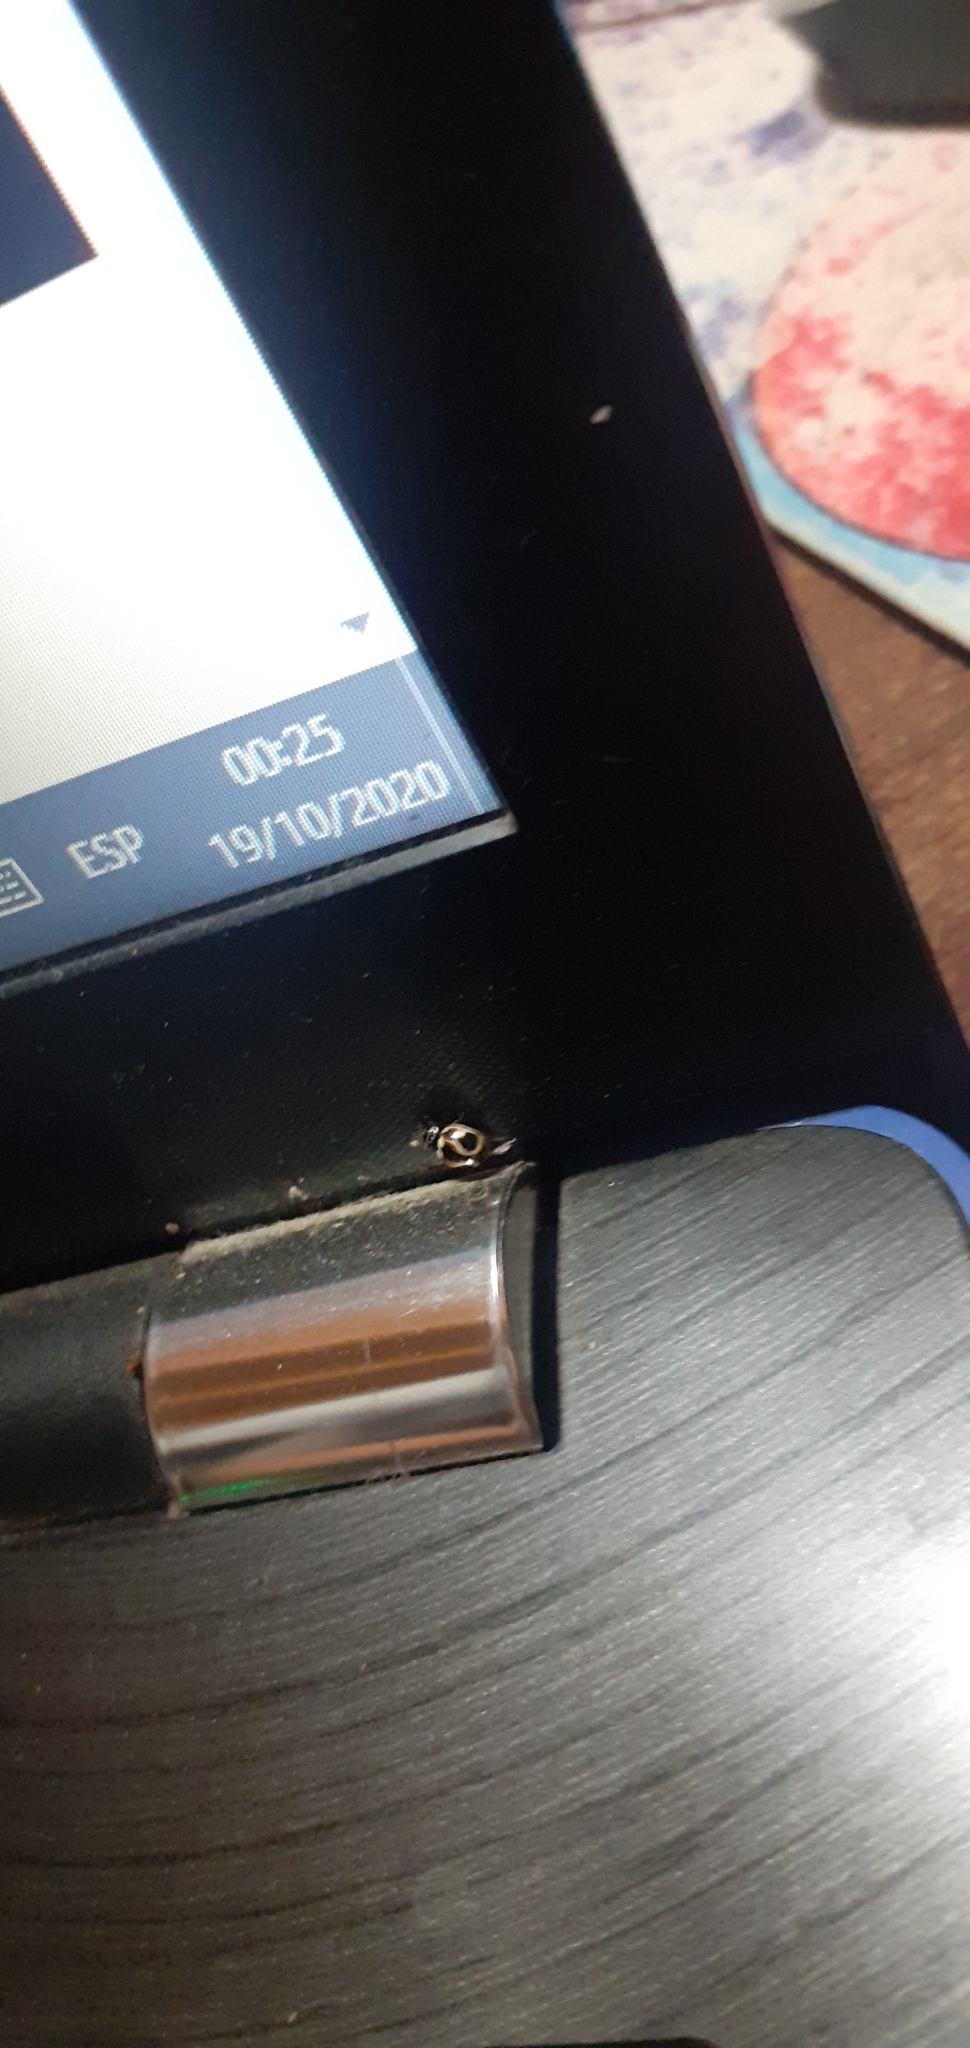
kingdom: Animalia
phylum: Arthropoda
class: Insecta
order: Coleoptera
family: Coccinellidae
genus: Cycloneda
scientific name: Cycloneda ancoralis
